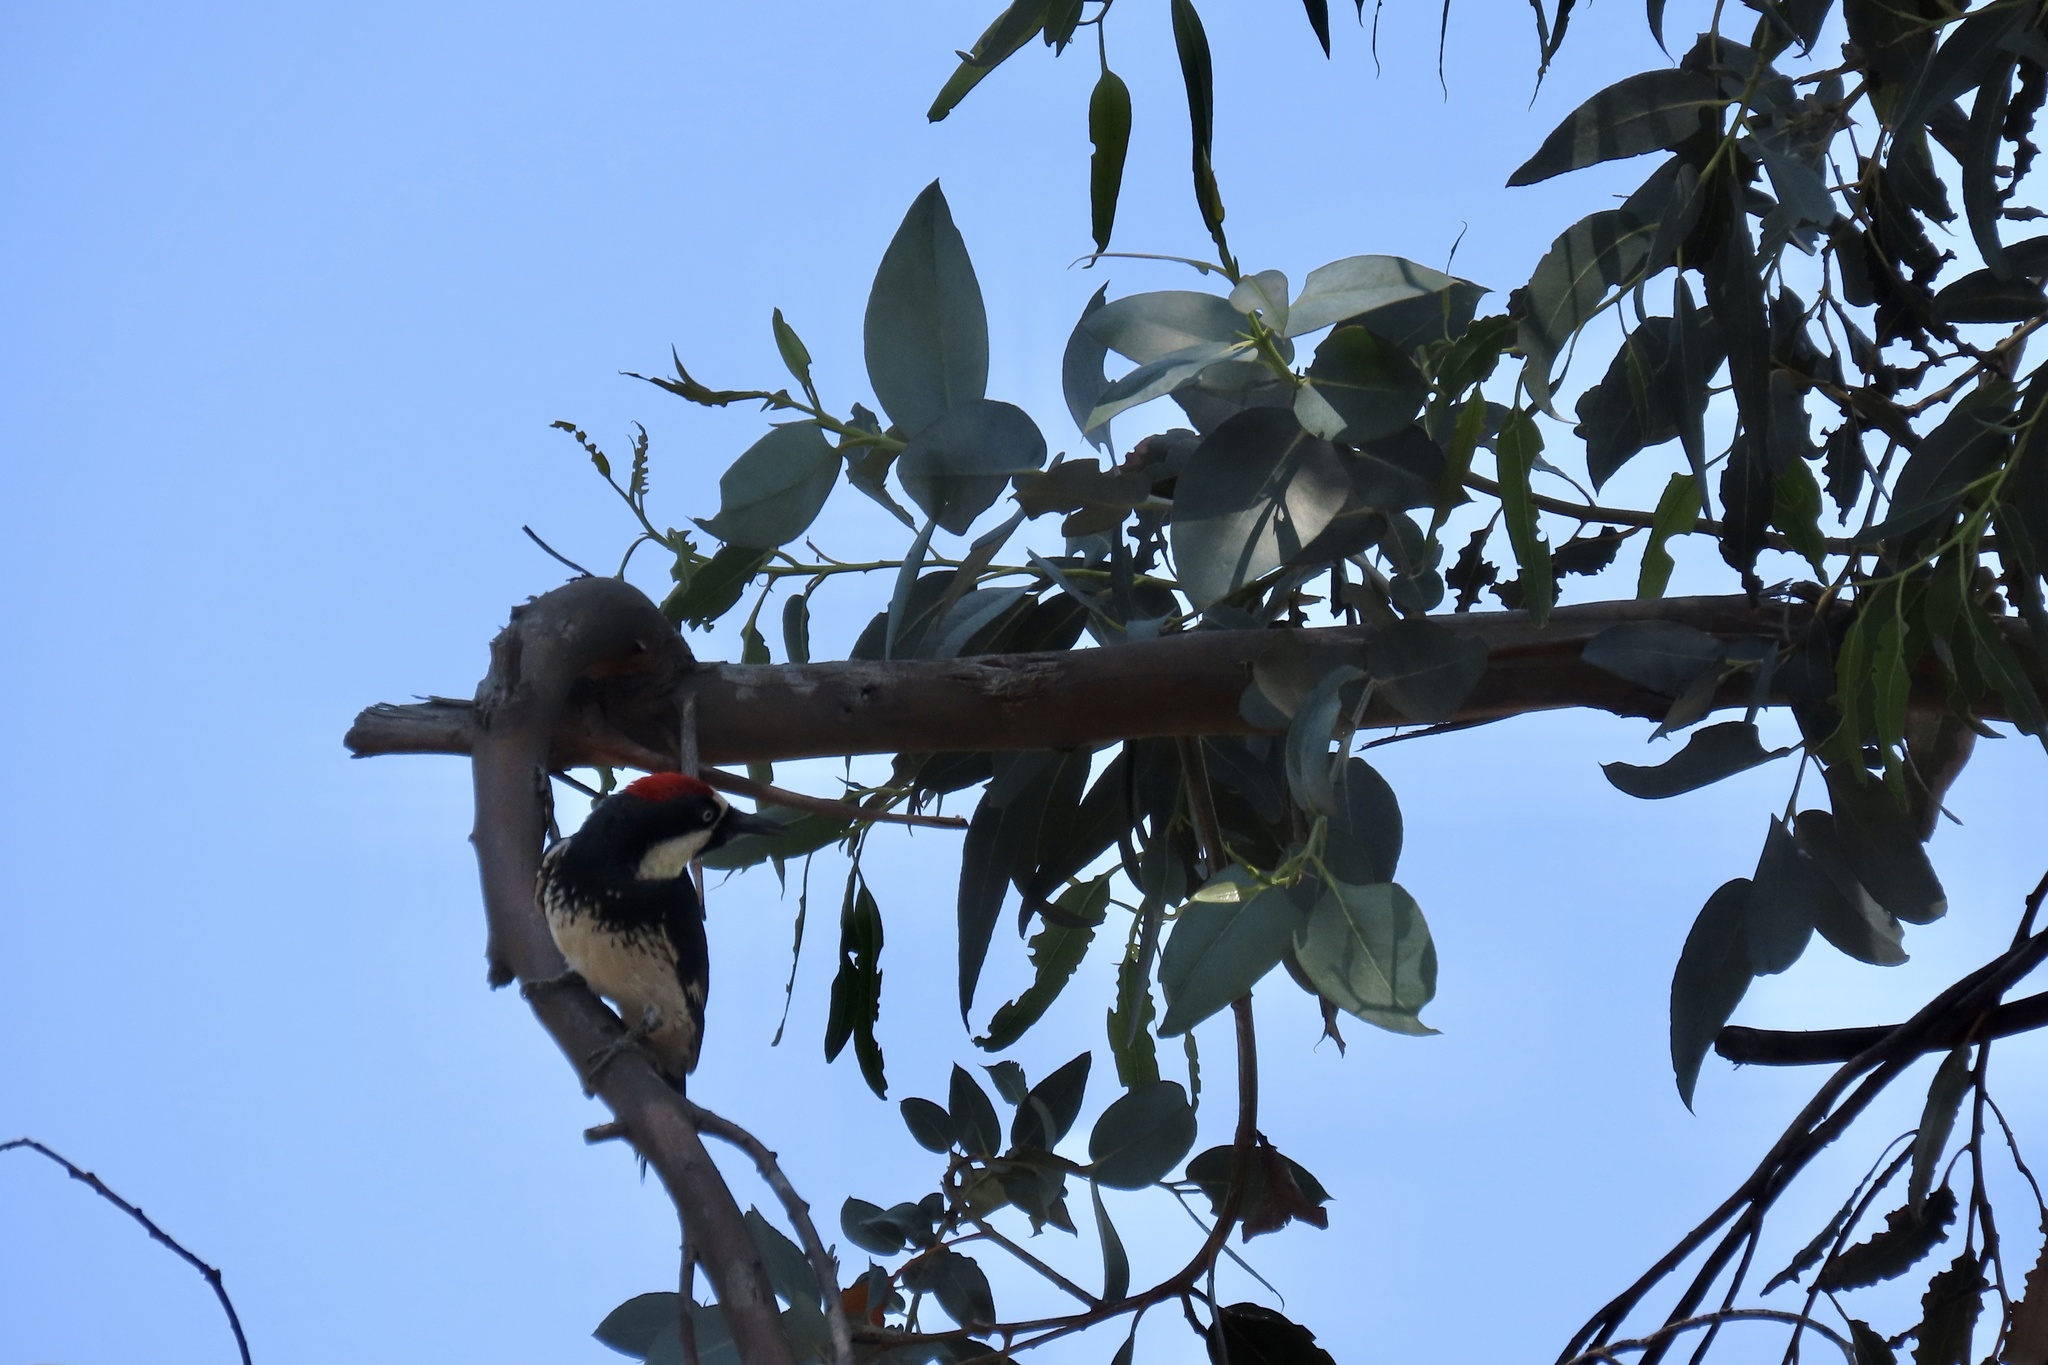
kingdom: Animalia
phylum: Chordata
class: Aves
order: Piciformes
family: Picidae
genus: Melanerpes
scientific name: Melanerpes formicivorus
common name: Acorn woodpecker
